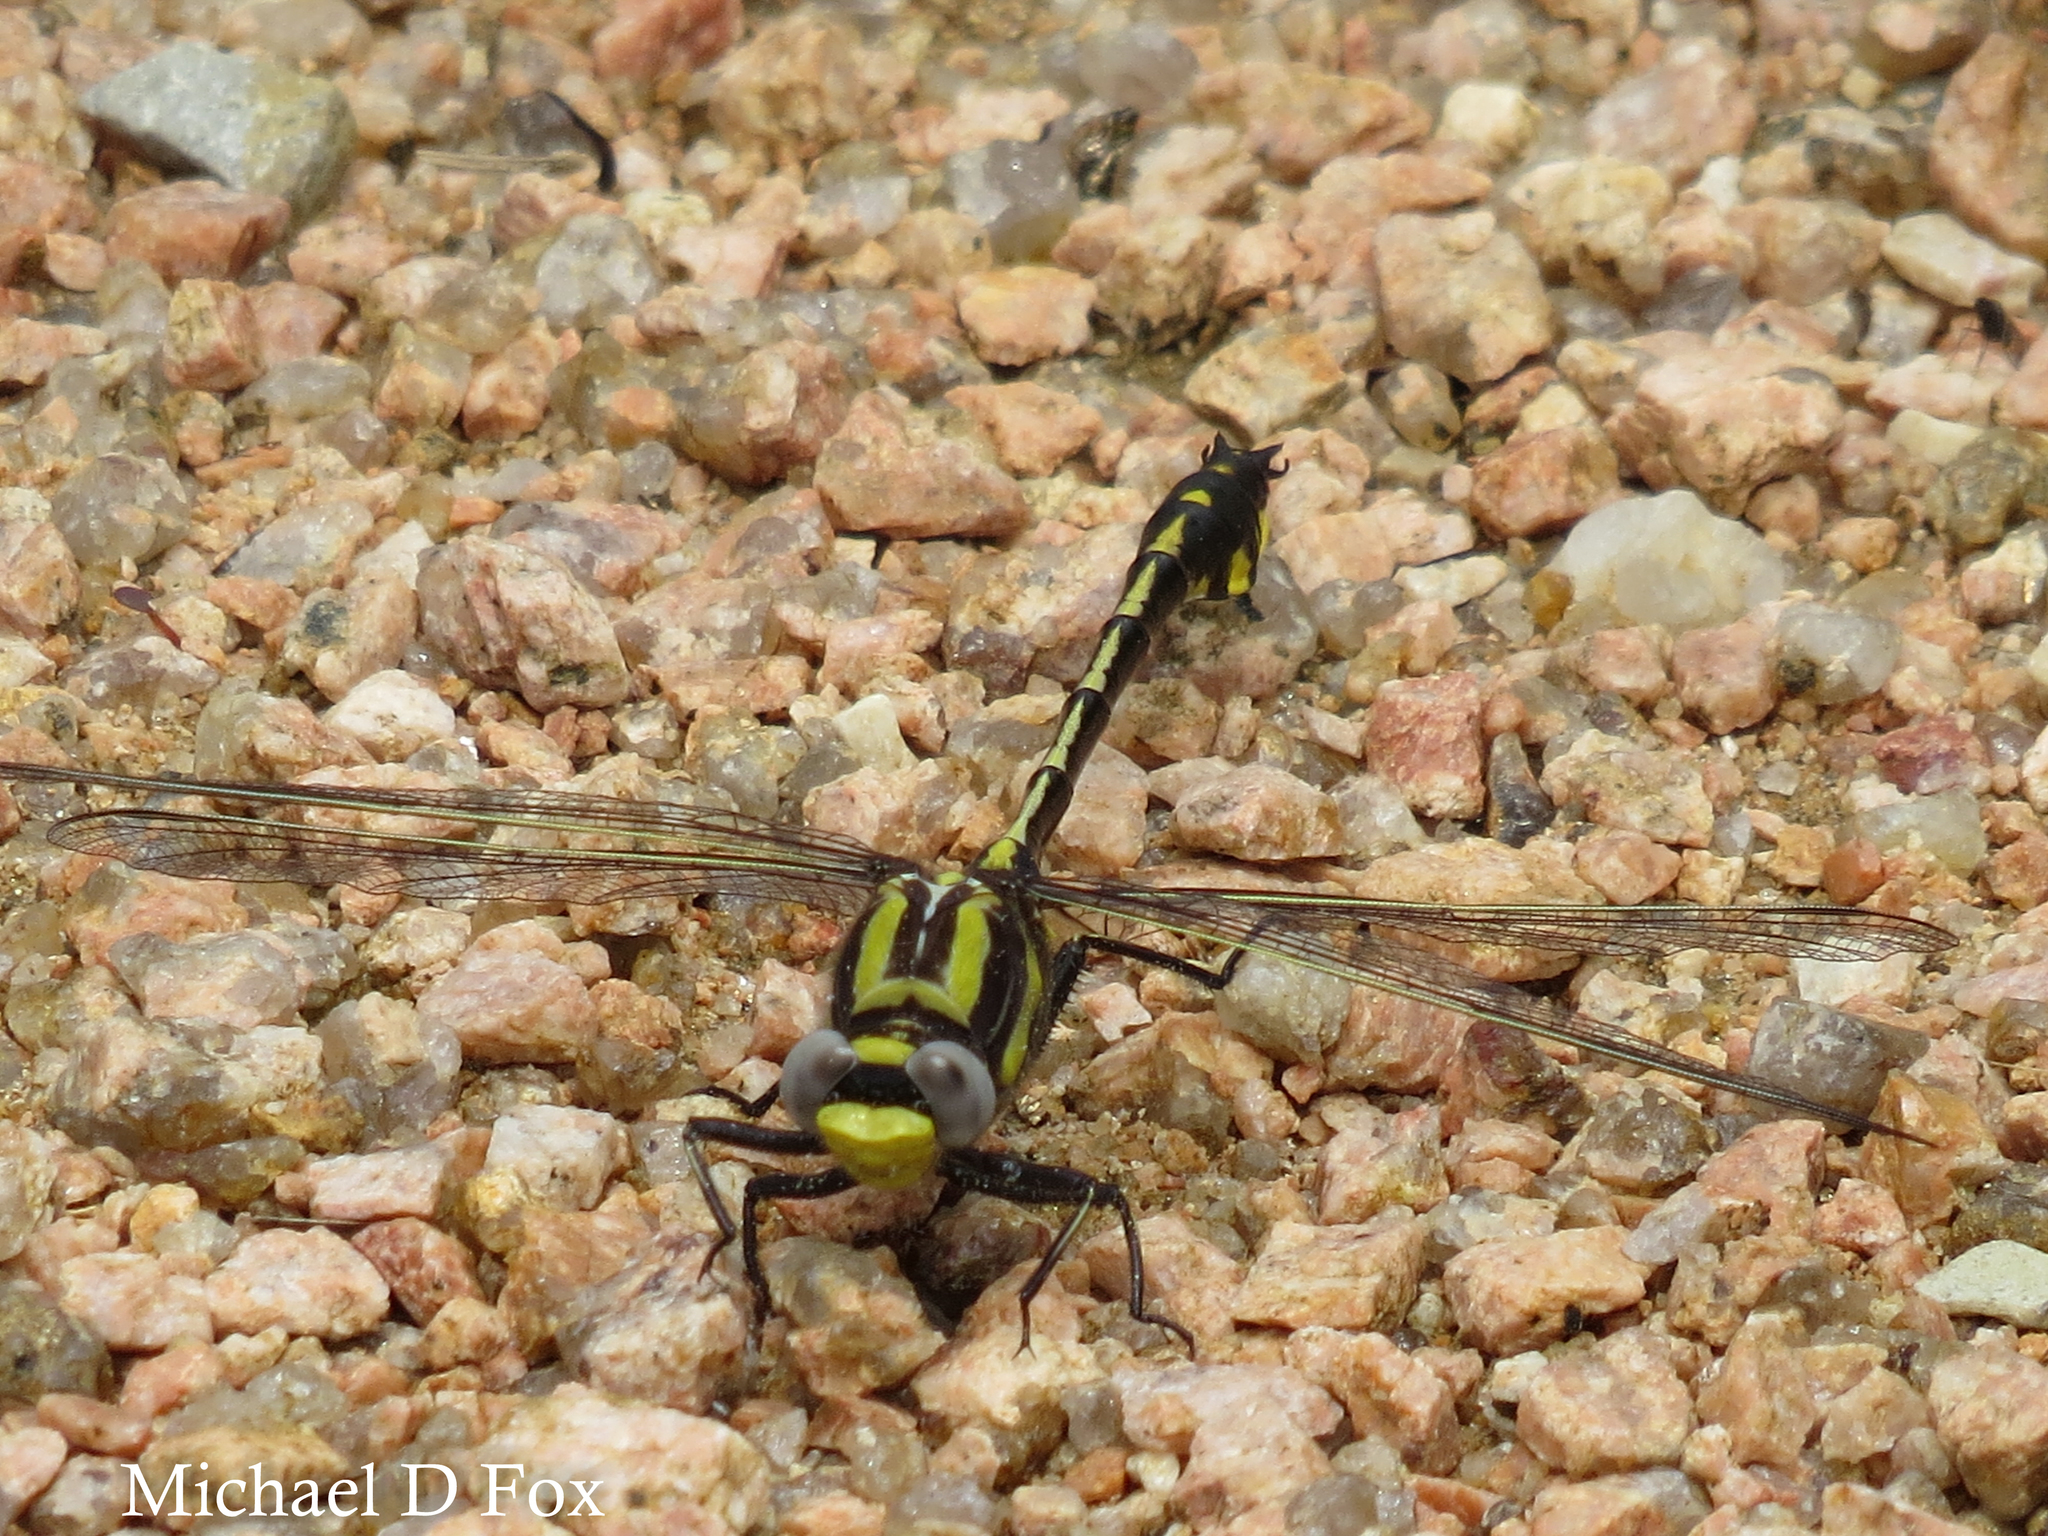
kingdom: Animalia
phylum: Arthropoda
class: Insecta
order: Odonata
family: Gomphidae
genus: Gomphurus
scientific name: Gomphurus externus
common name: Plains clubtail
